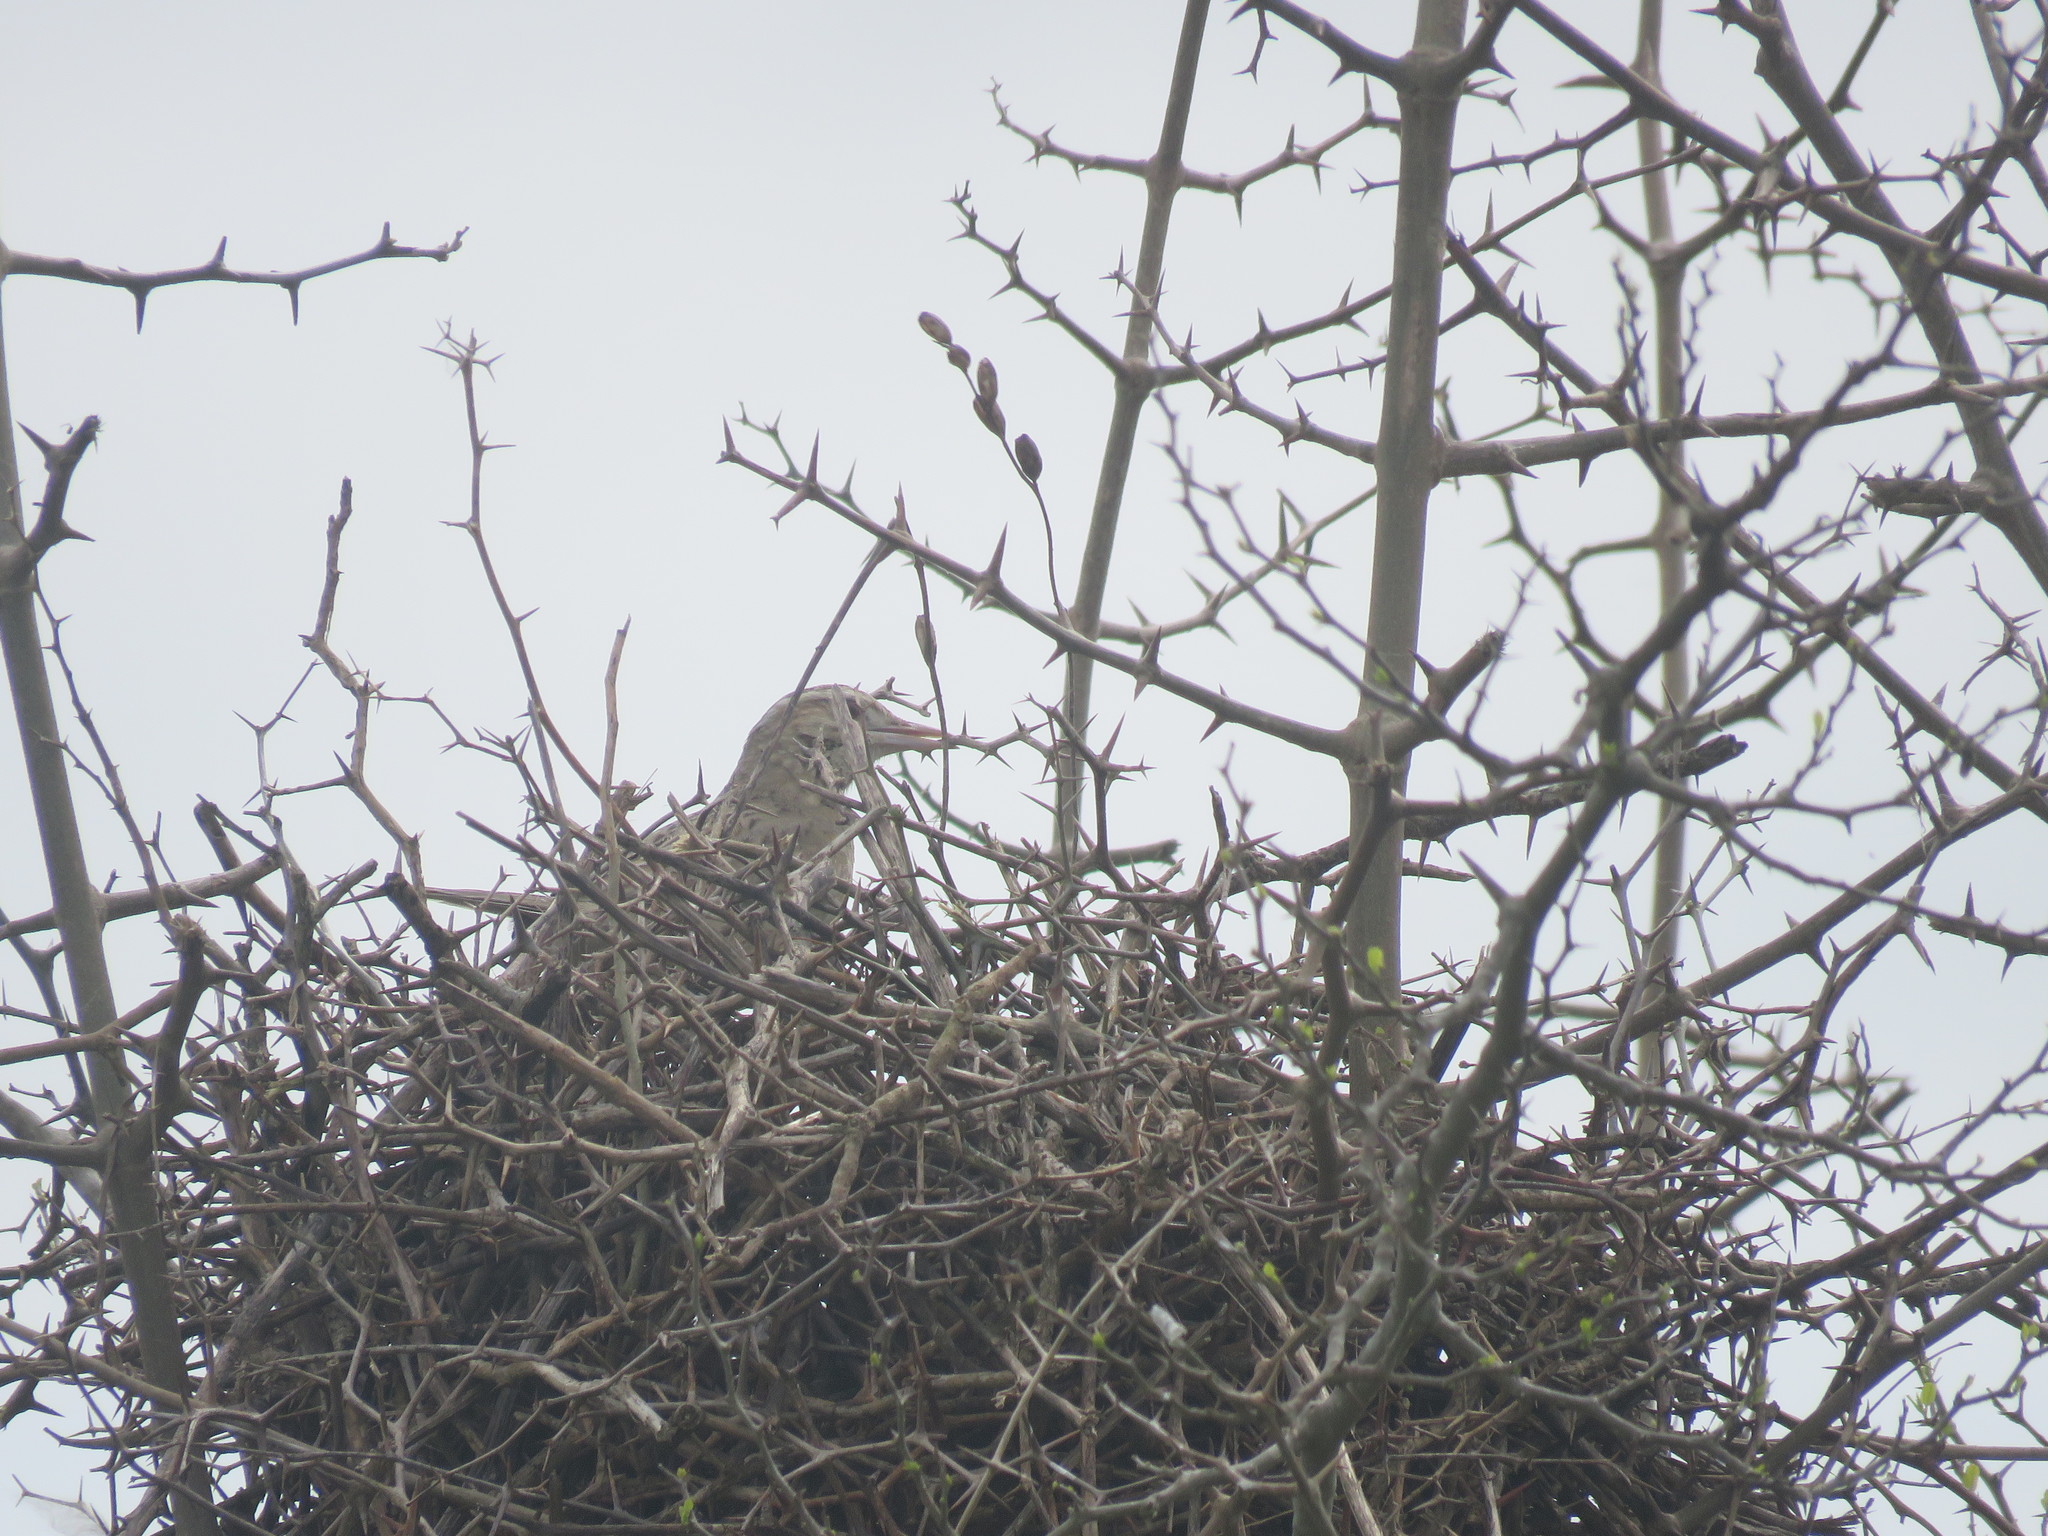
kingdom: Animalia
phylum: Chordata
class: Aves
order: Passeriformes
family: Furnariidae
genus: Anumbius
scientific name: Anumbius annumbi
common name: Firewood-gatherer
